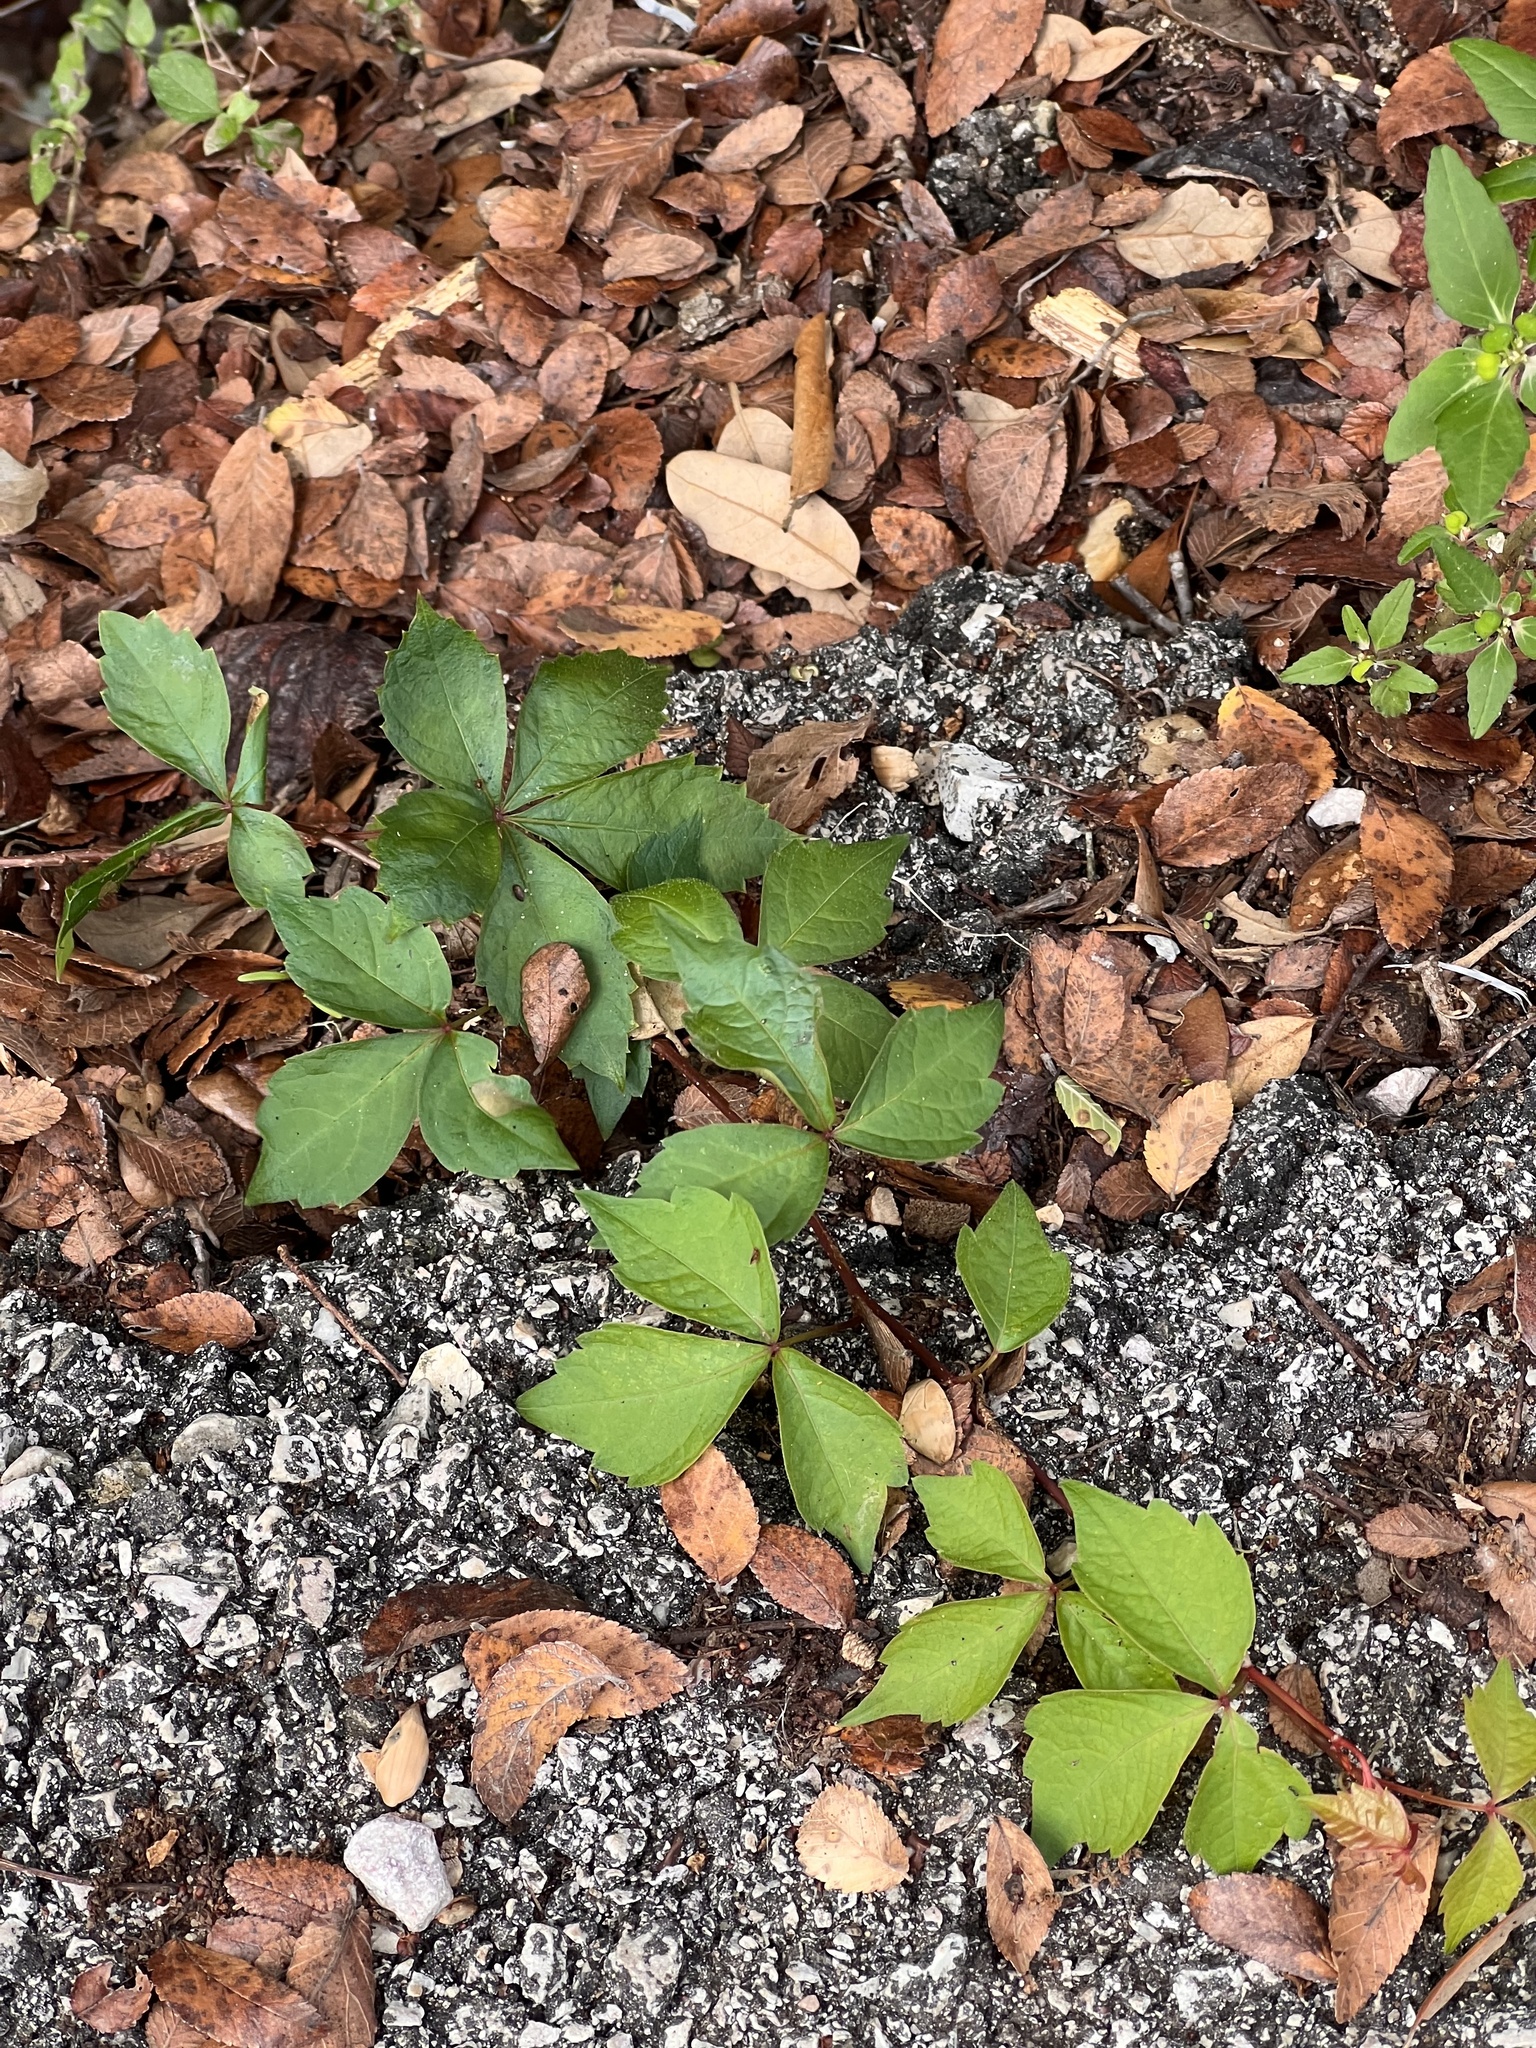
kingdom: Plantae
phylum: Tracheophyta
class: Magnoliopsida
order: Vitales
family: Vitaceae
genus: Parthenocissus
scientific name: Parthenocissus quinquefolia
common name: Virginia-creeper
